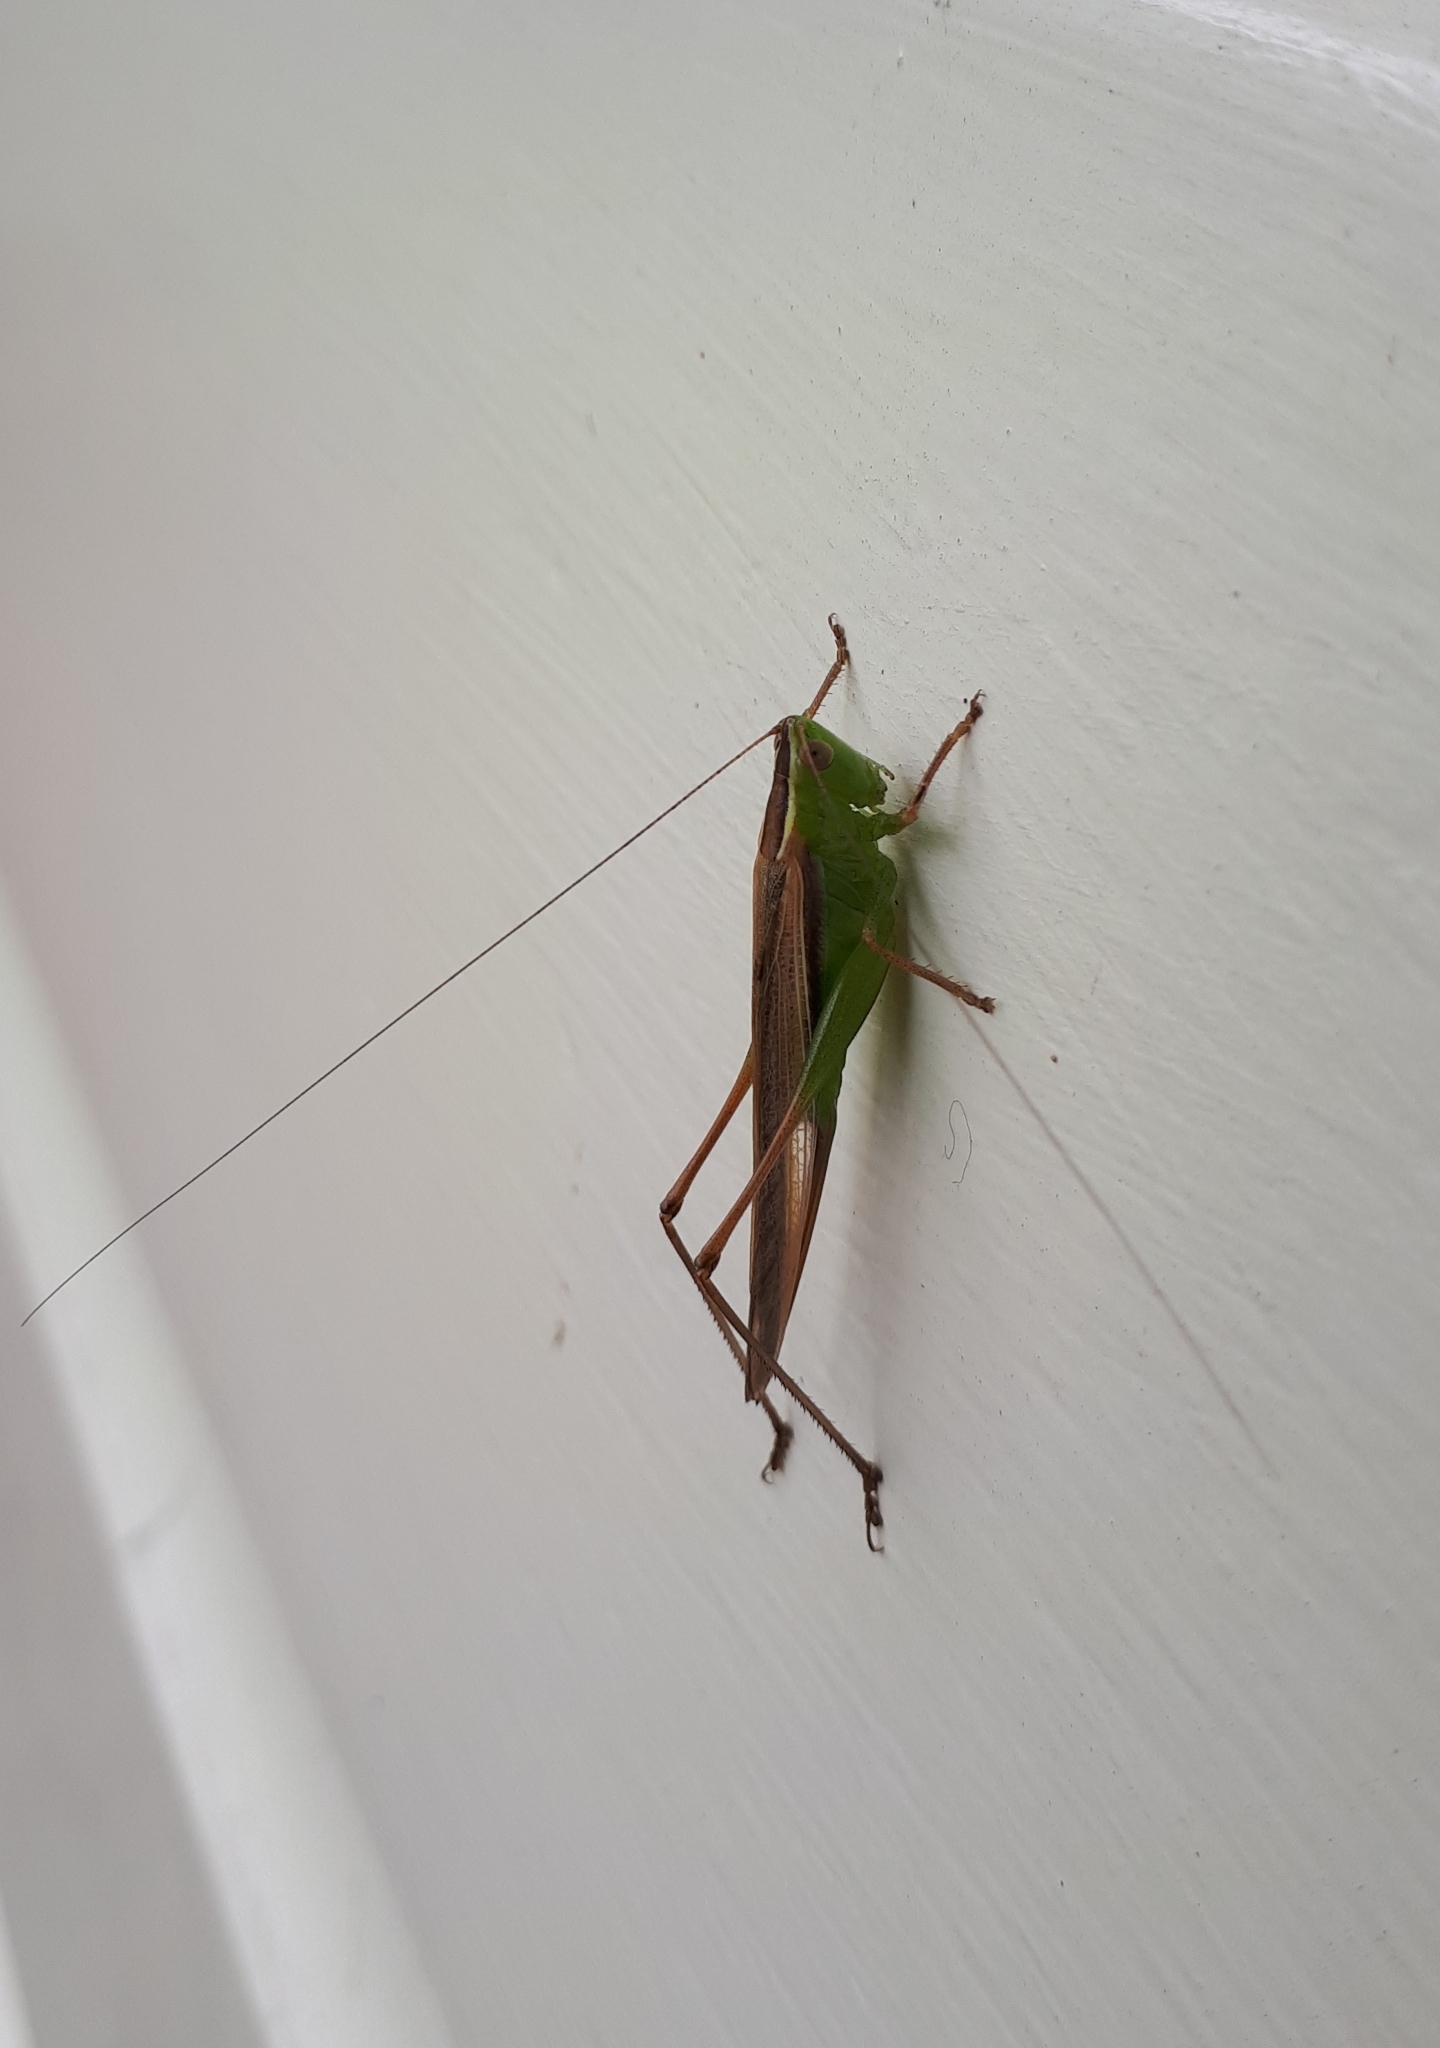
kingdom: Animalia
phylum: Arthropoda
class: Insecta
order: Orthoptera
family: Tettigoniidae
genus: Conocephalus
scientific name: Conocephalus albescens
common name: Whitish meadow katydid
